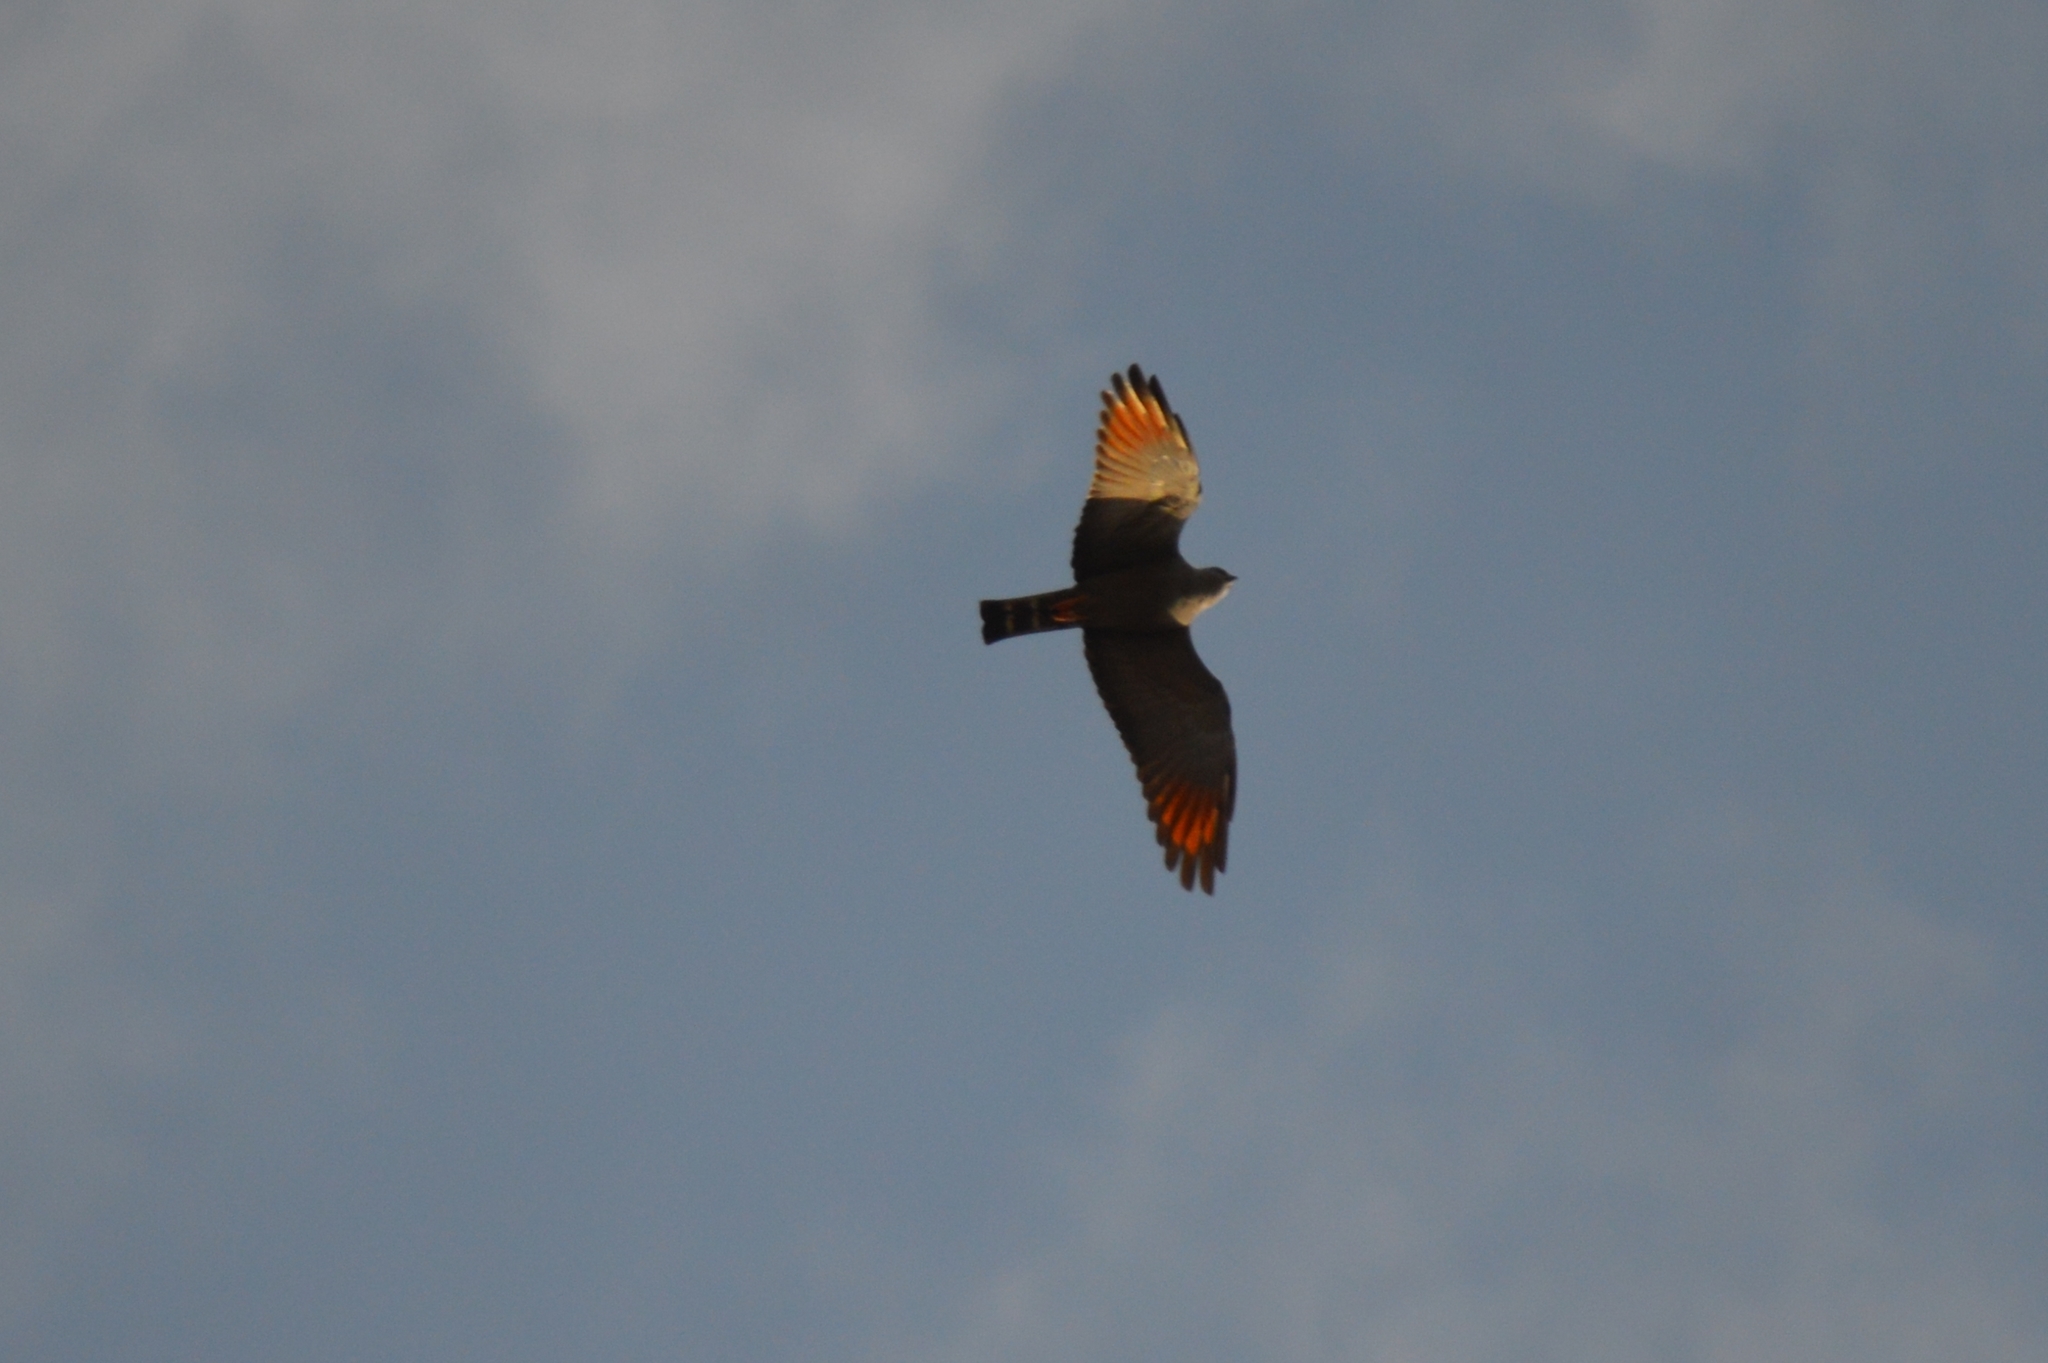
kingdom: Animalia
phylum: Chordata
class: Aves
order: Accipitriformes
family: Accipitridae
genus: Ictinia
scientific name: Ictinia plumbea
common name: Plumbeous kite
